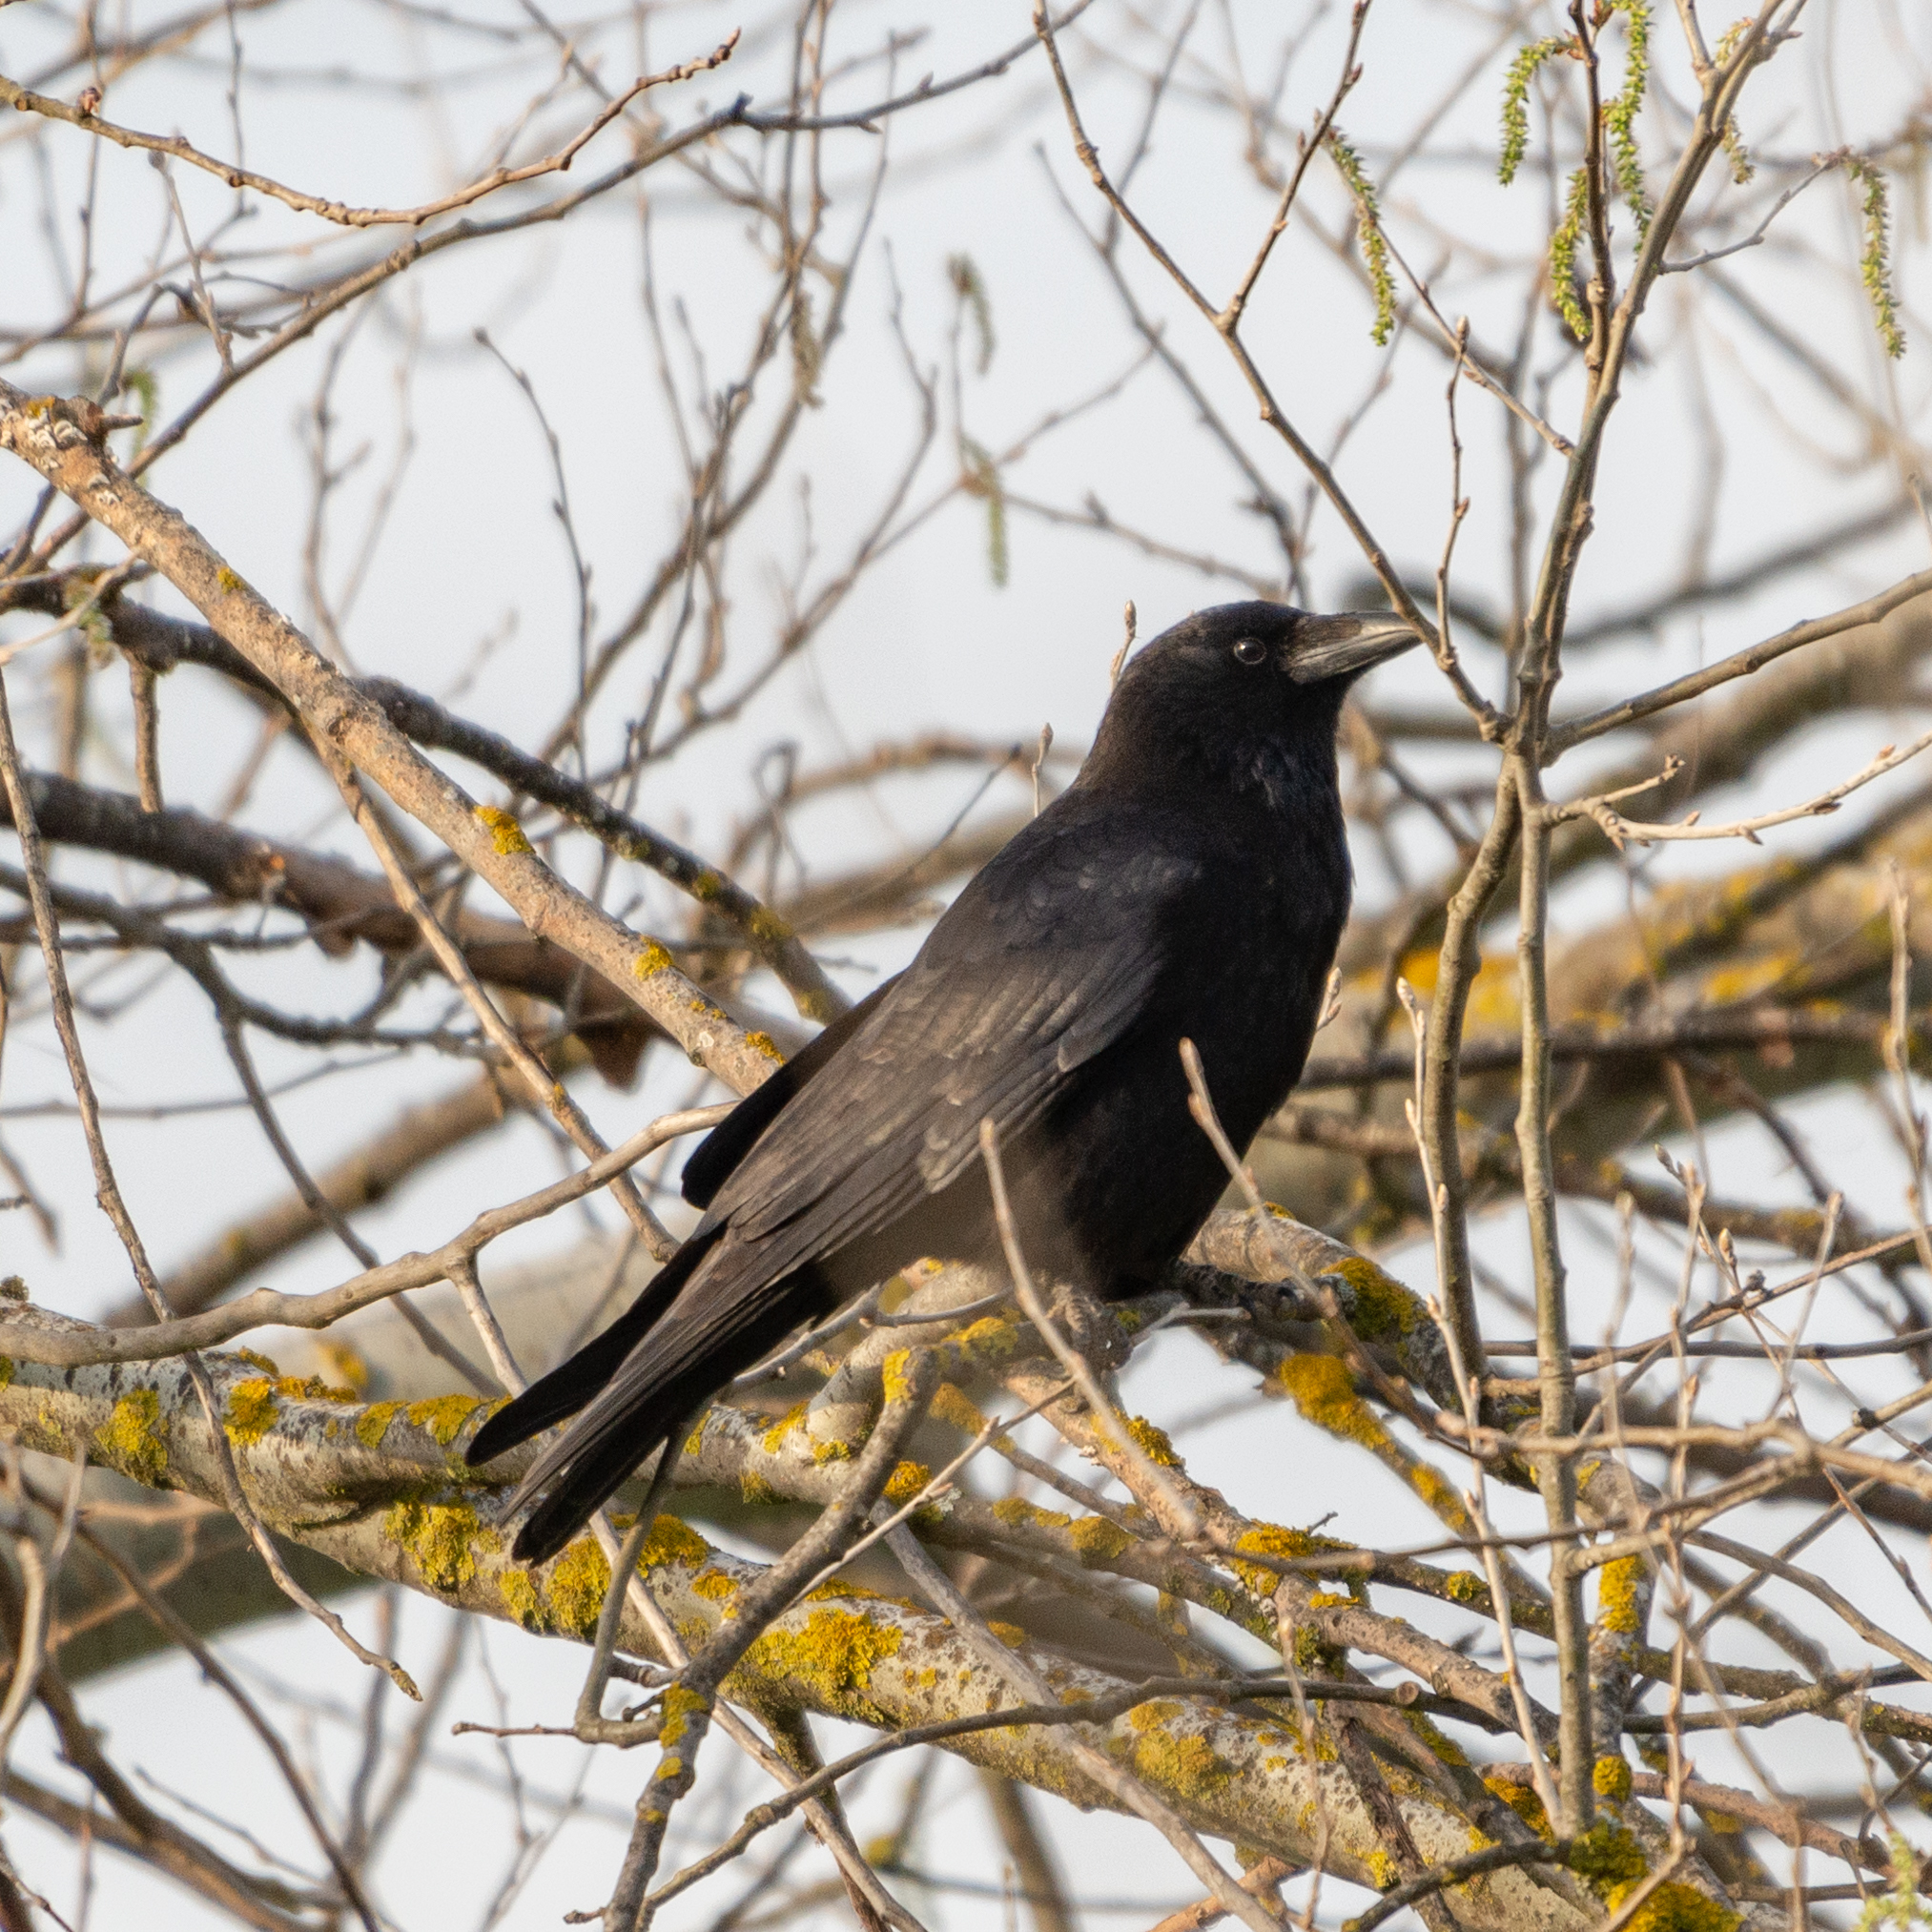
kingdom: Animalia
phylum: Chordata
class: Aves
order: Passeriformes
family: Corvidae
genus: Corvus
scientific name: Corvus corone
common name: Carrion crow
